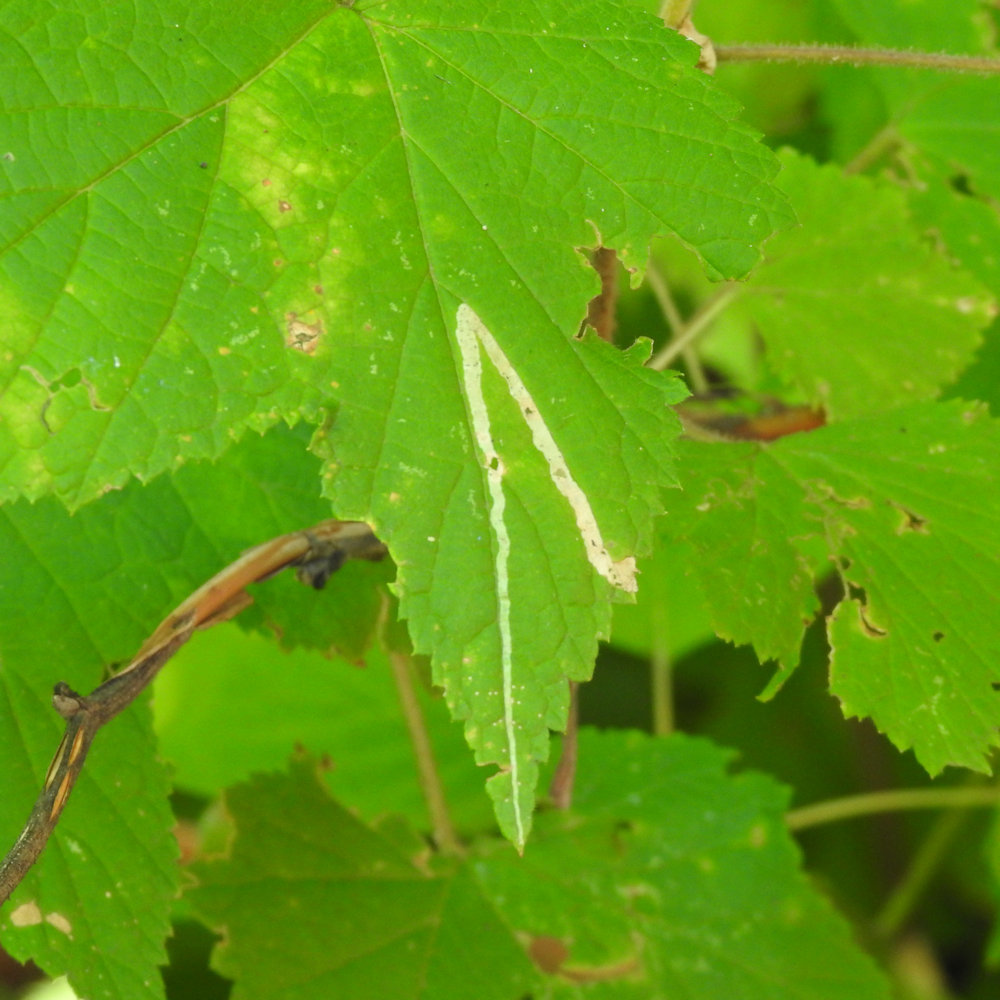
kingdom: Animalia
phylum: Arthropoda
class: Insecta
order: Diptera
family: Agromyzidae
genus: Agromyza
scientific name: Agromyza vockerothi
